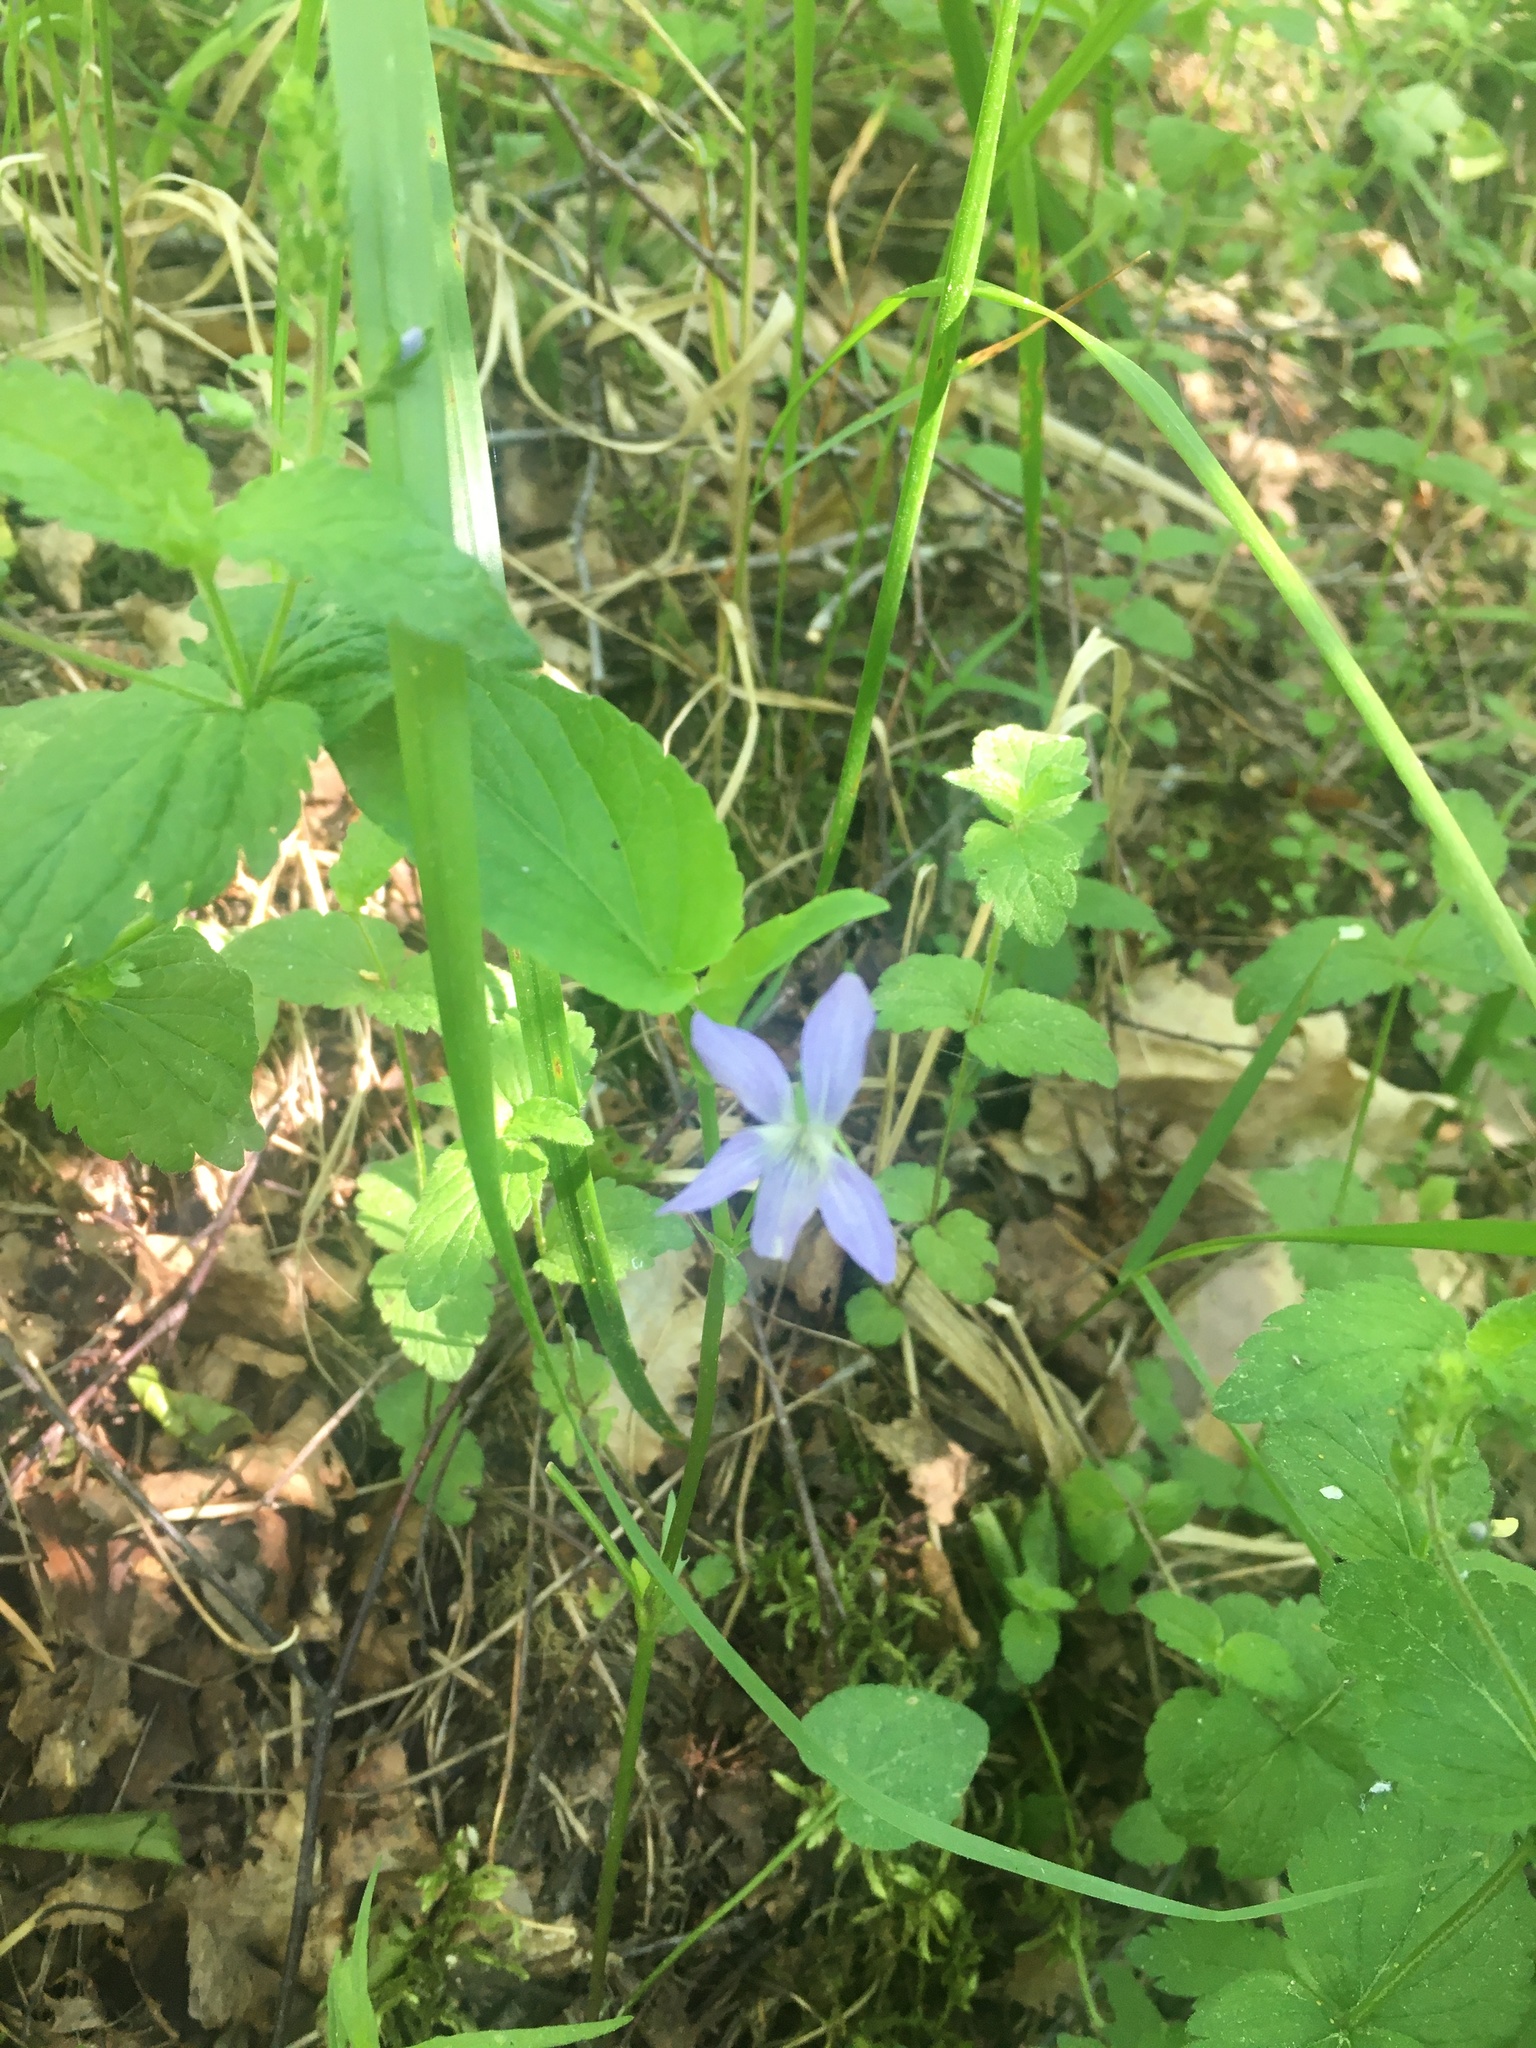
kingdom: Plantae
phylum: Tracheophyta
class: Magnoliopsida
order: Asterales
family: Campanulaceae
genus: Campanula
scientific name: Campanula patula
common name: Spreading bellflower
